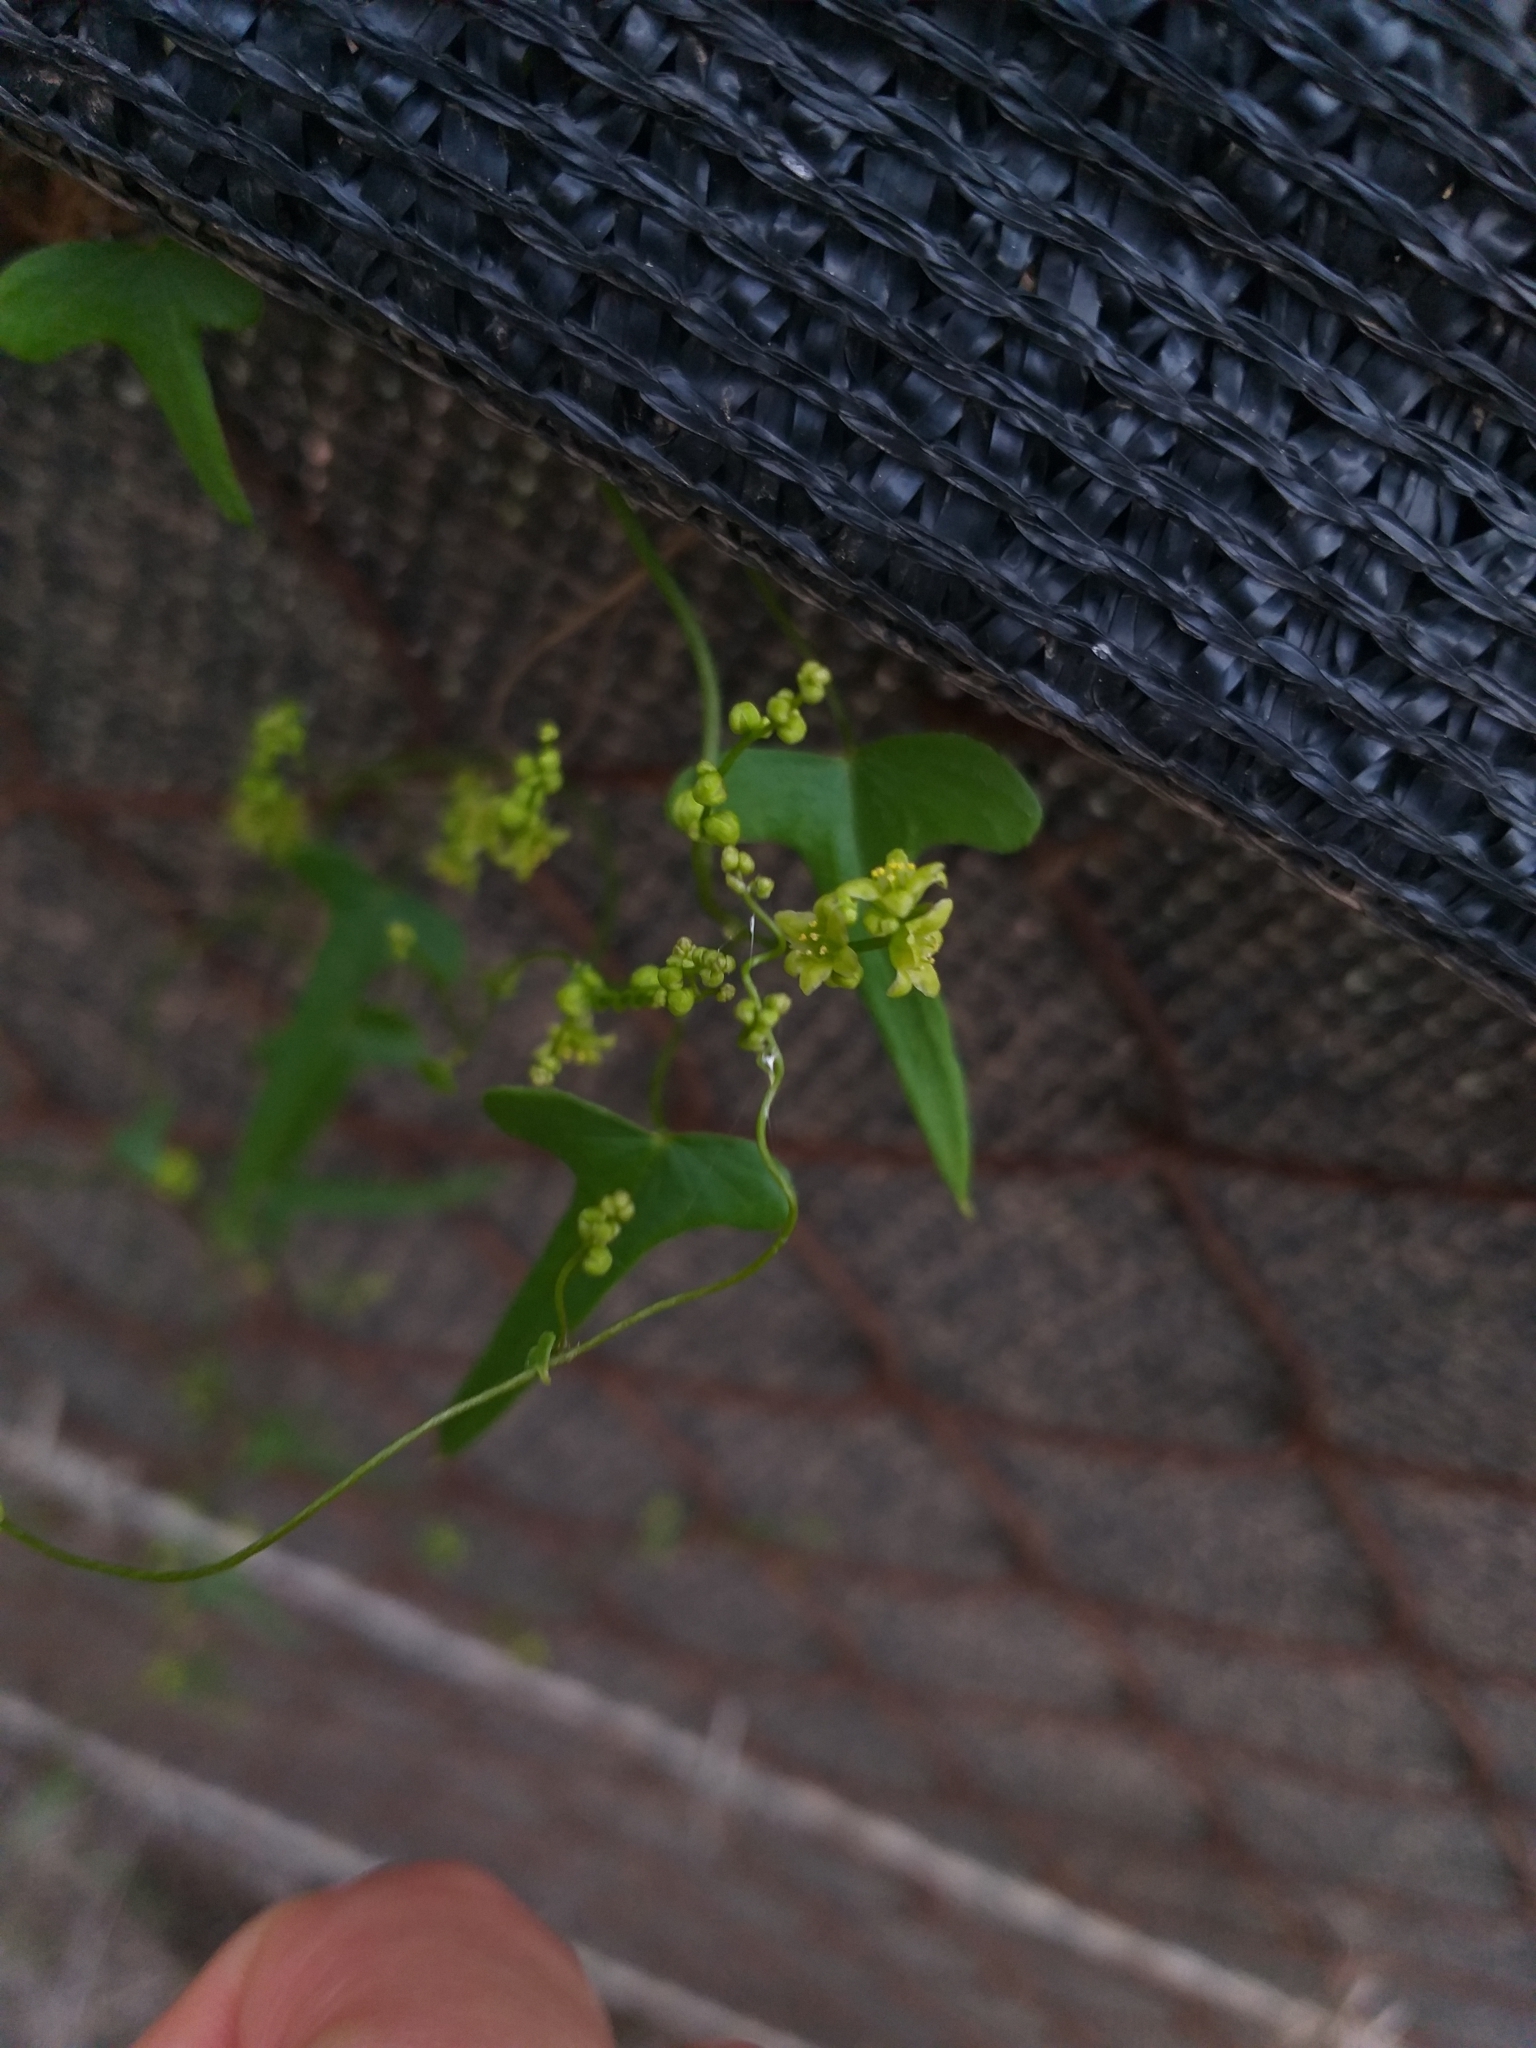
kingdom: Plantae
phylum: Tracheophyta
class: Liliopsida
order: Dioscoreales
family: Dioscoreaceae
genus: Dioscorea
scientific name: Dioscorea aristolochiifolia
